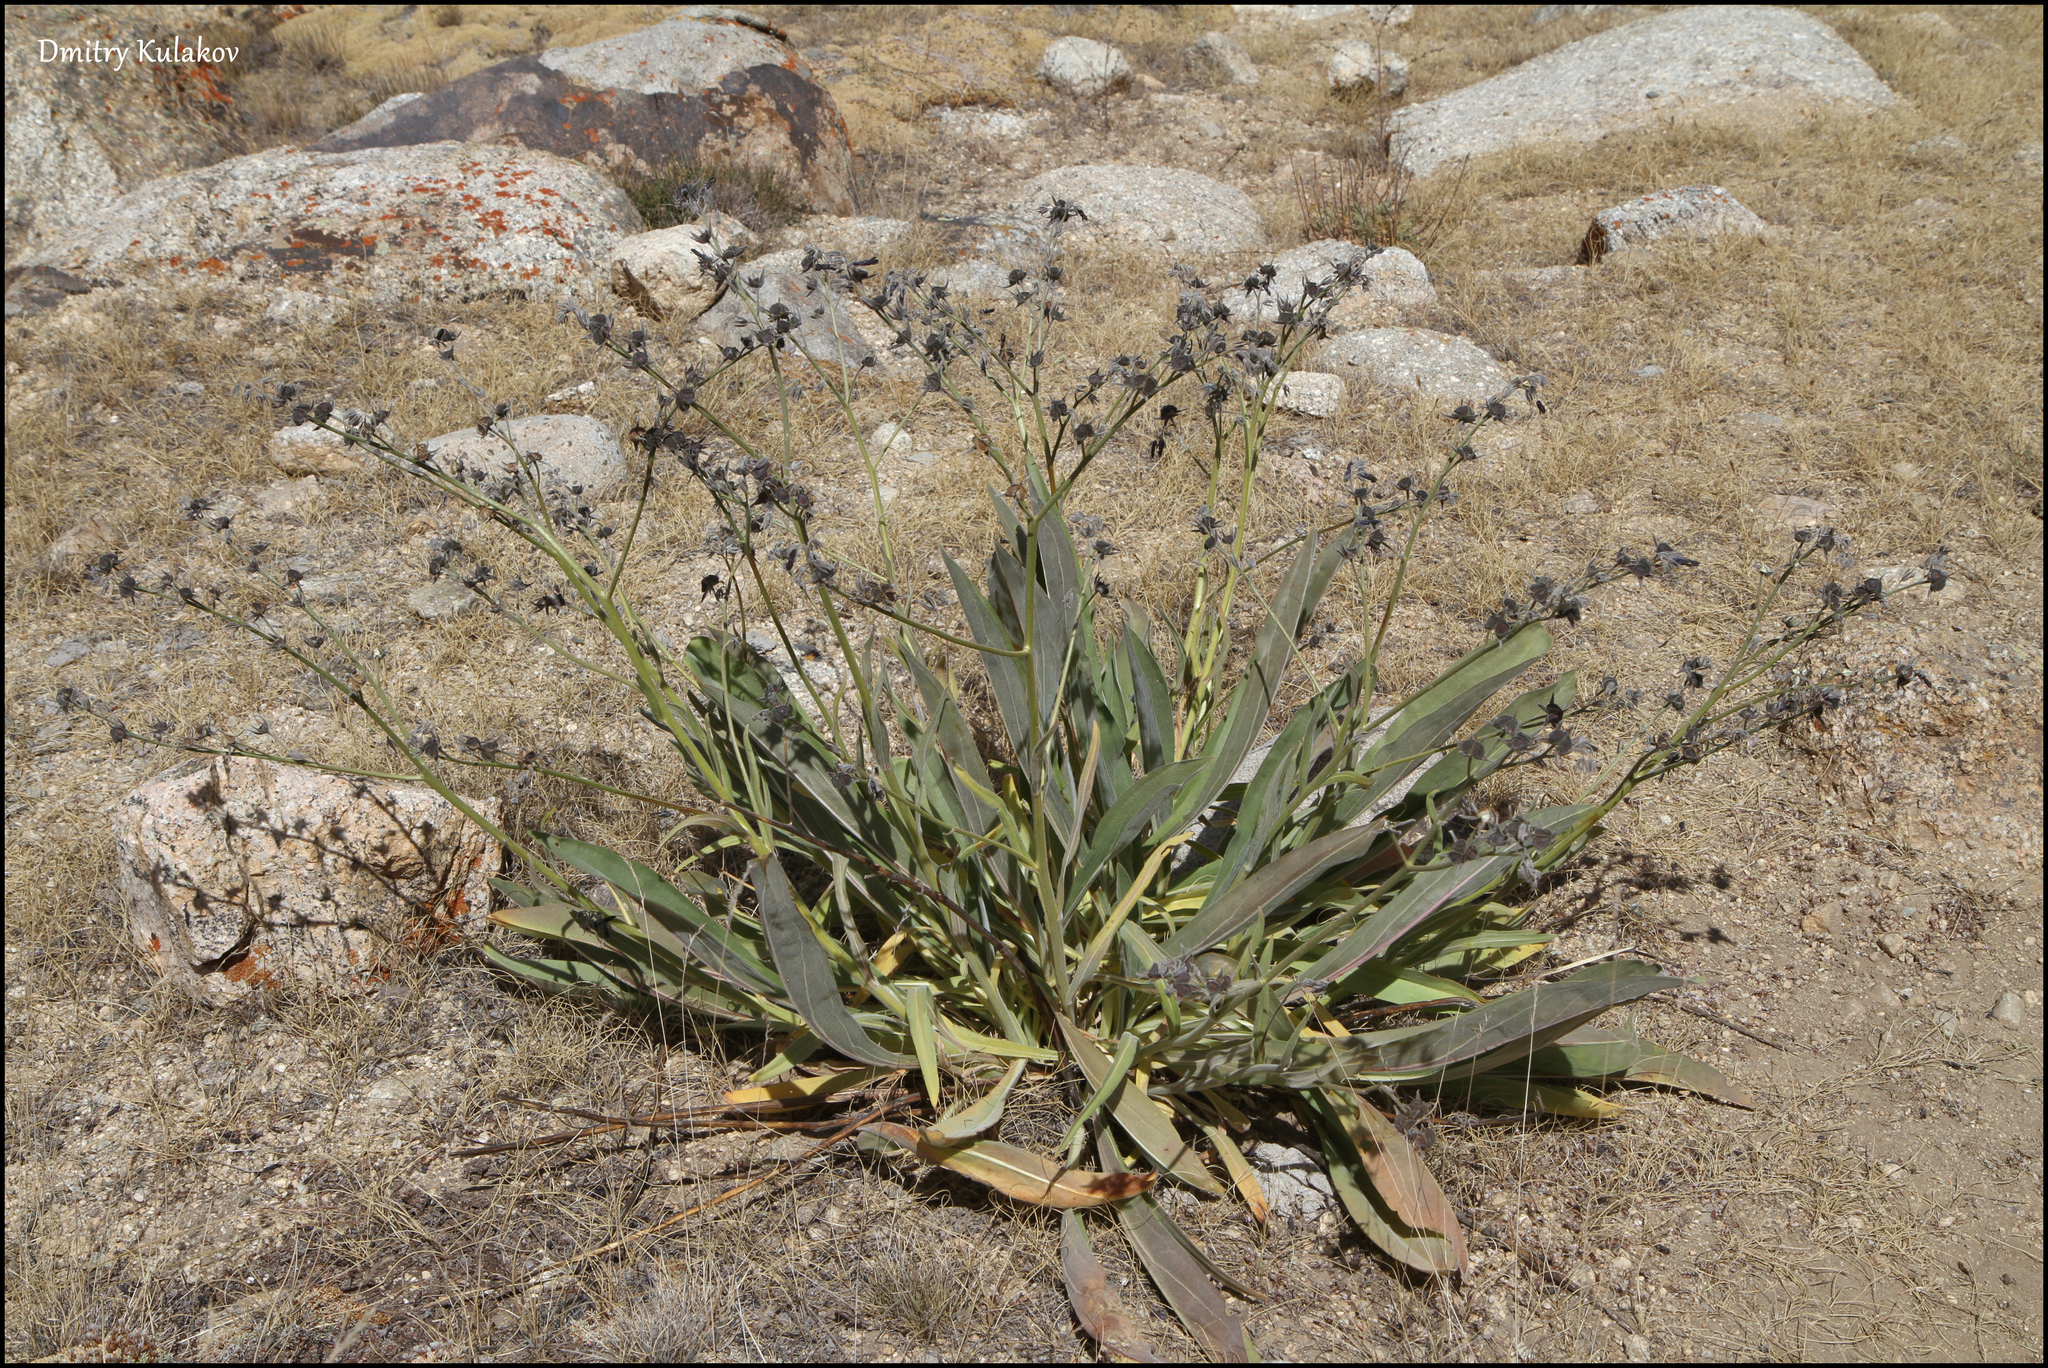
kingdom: Plantae
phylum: Tracheophyta
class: Magnoliopsida
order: Boraginales
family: Boraginaceae
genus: Lindelofia
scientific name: Lindelofia stylosa
